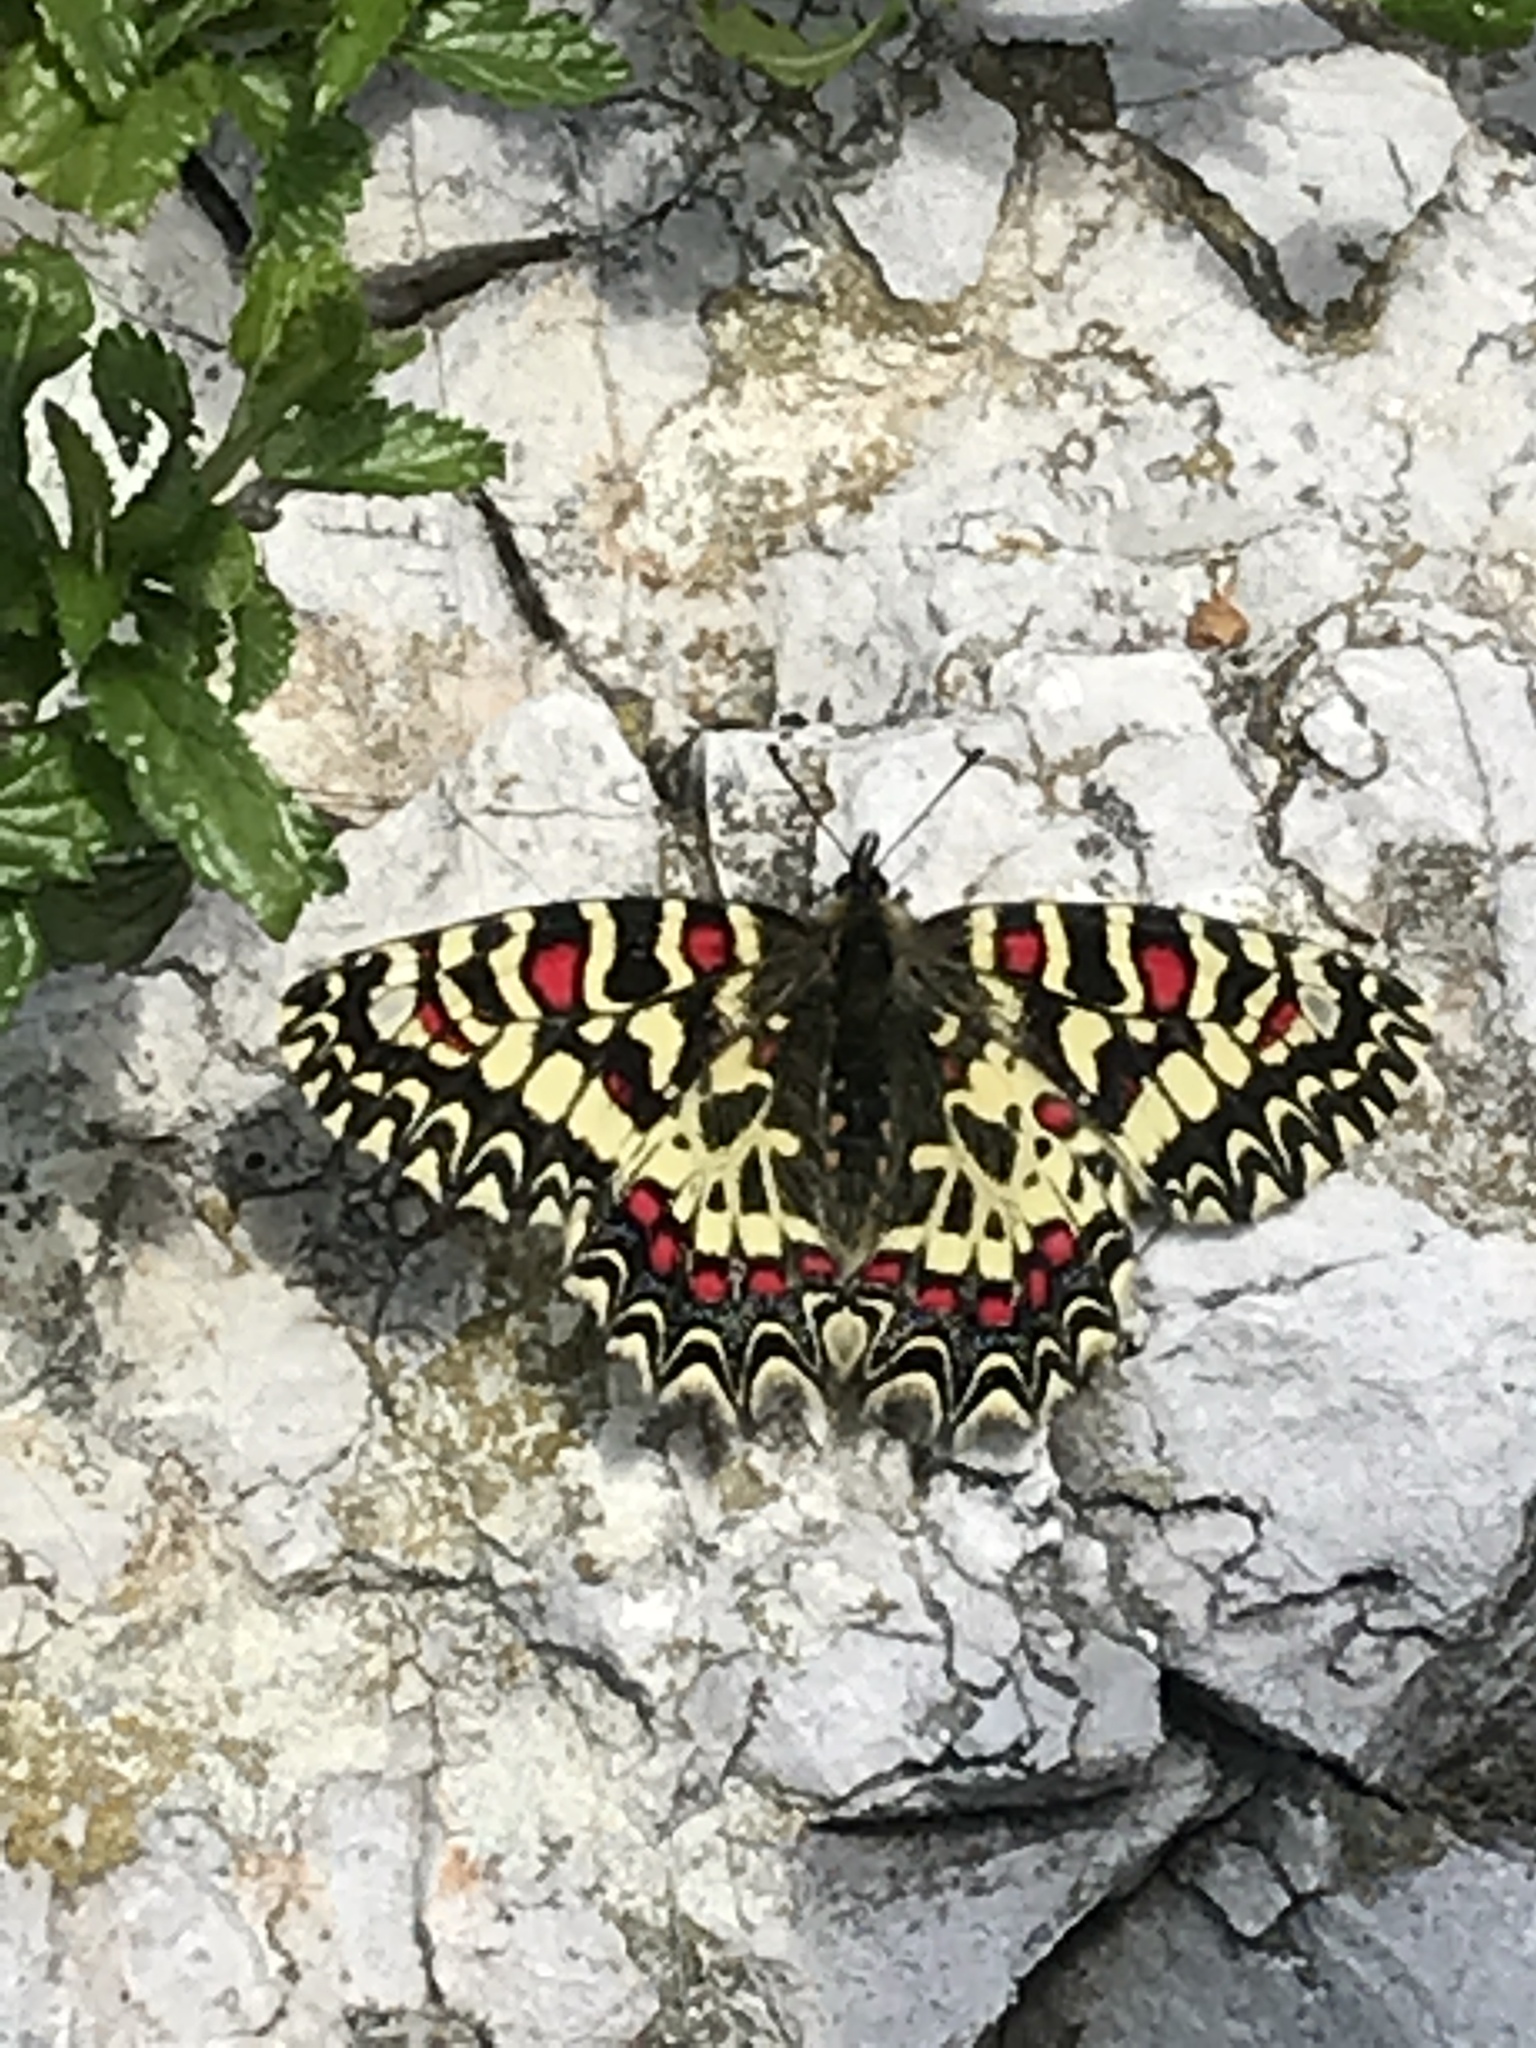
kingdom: Animalia
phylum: Arthropoda
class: Insecta
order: Lepidoptera
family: Papilionidae
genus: Zerynthia
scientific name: Zerynthia rumina
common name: Spanish festoon
